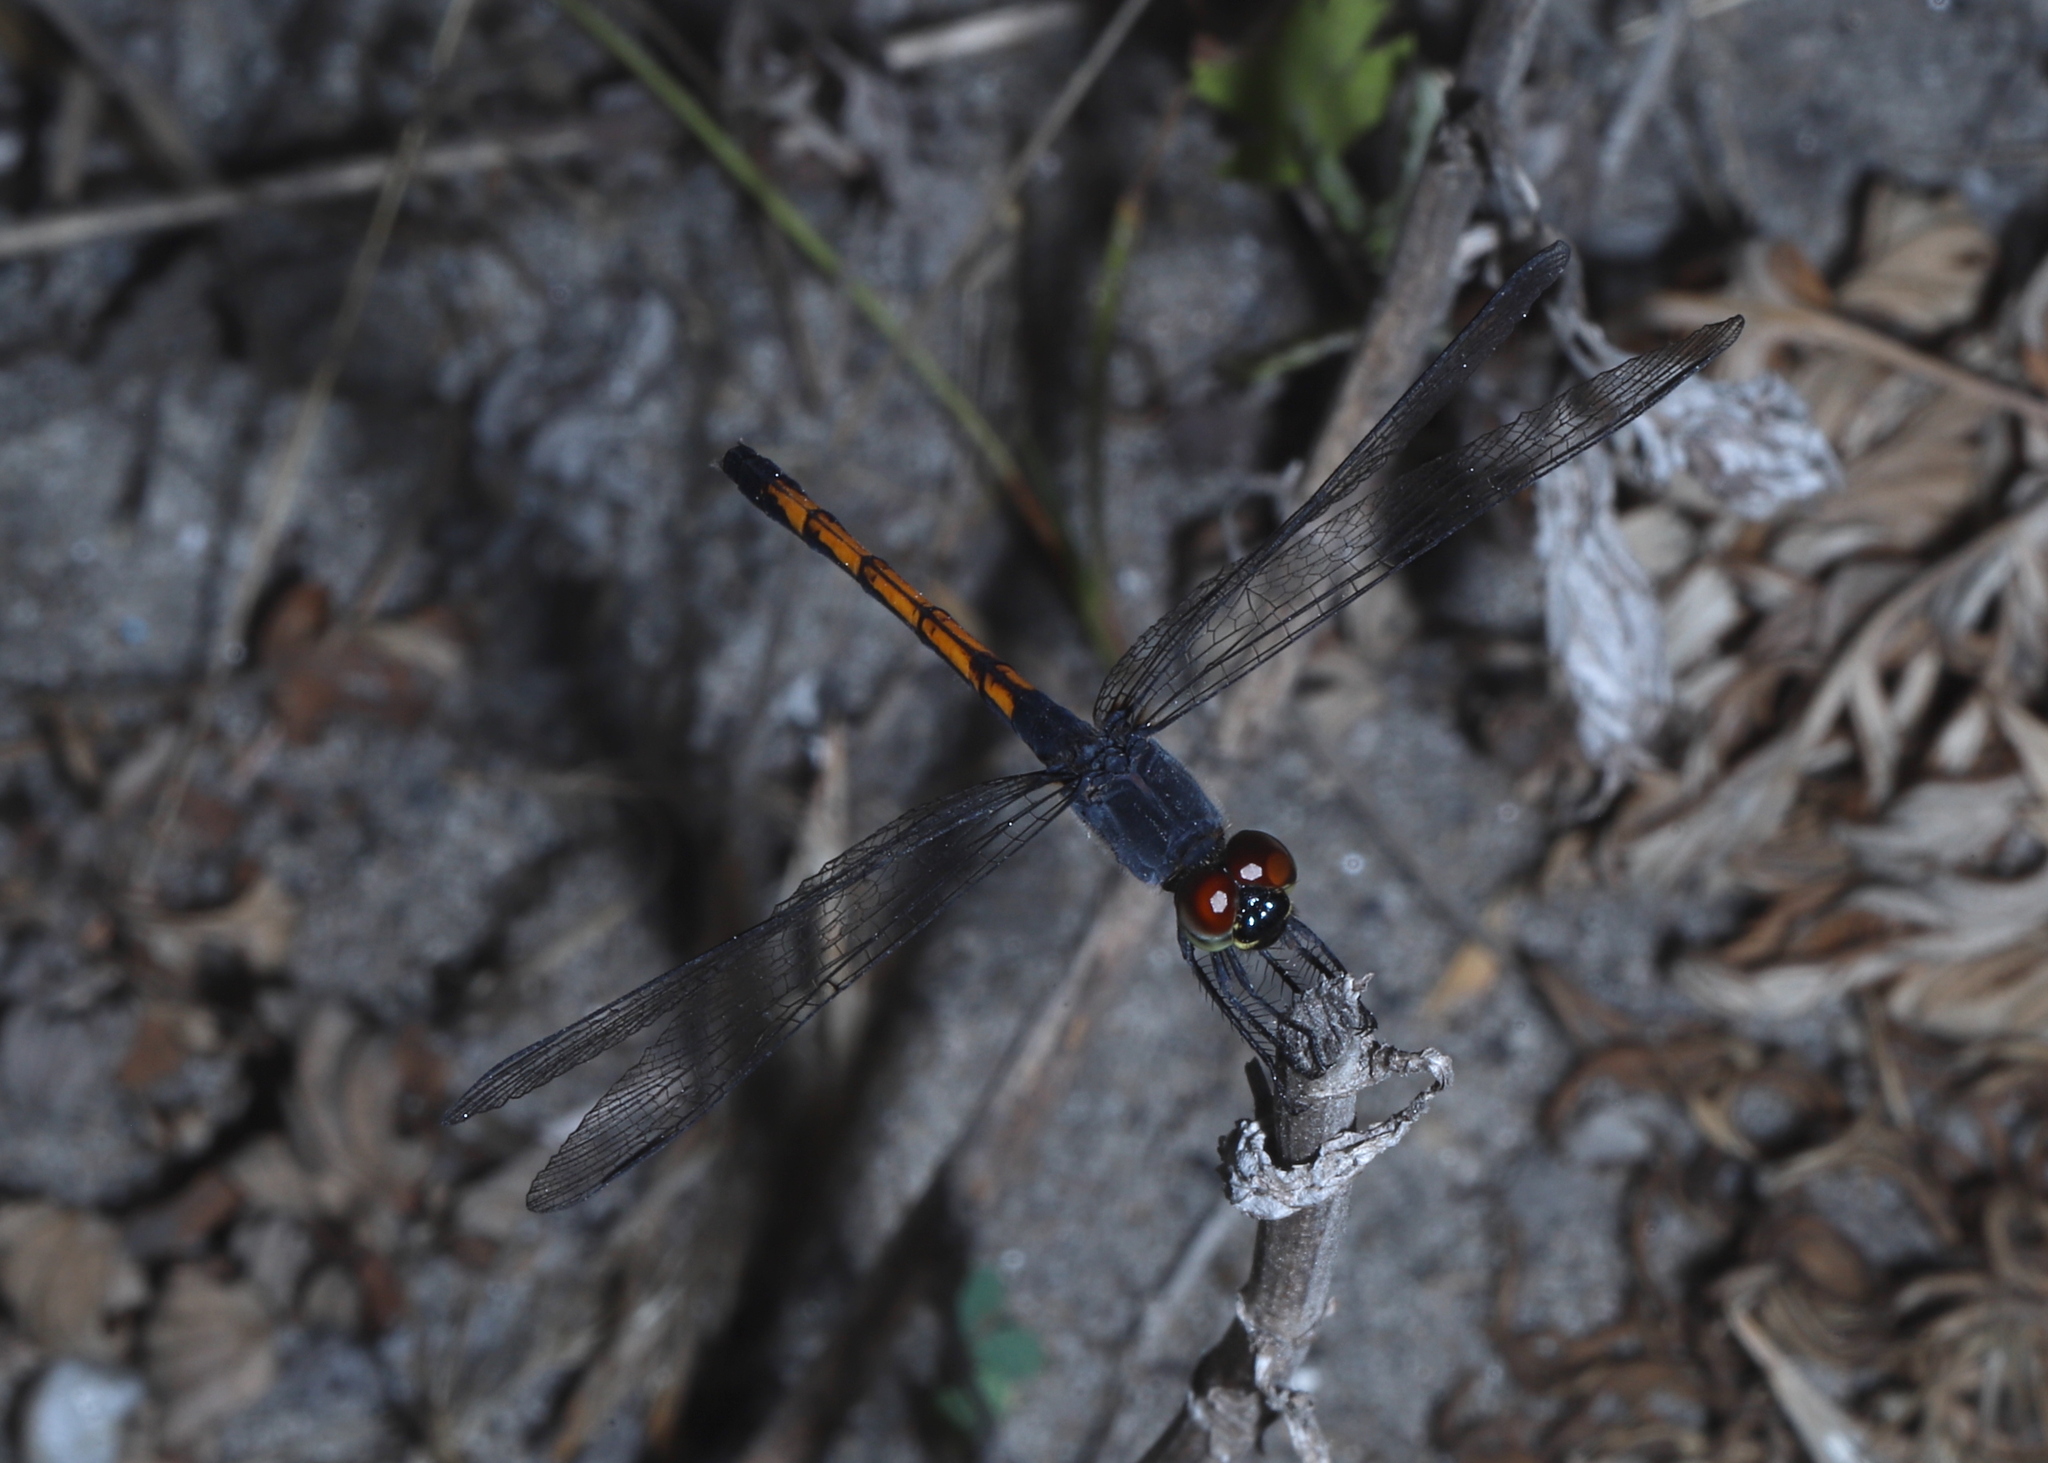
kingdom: Animalia
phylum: Arthropoda
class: Insecta
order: Odonata
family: Libellulidae
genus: Erythrodiplax
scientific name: Erythrodiplax berenice
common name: Seaside dragonlet
